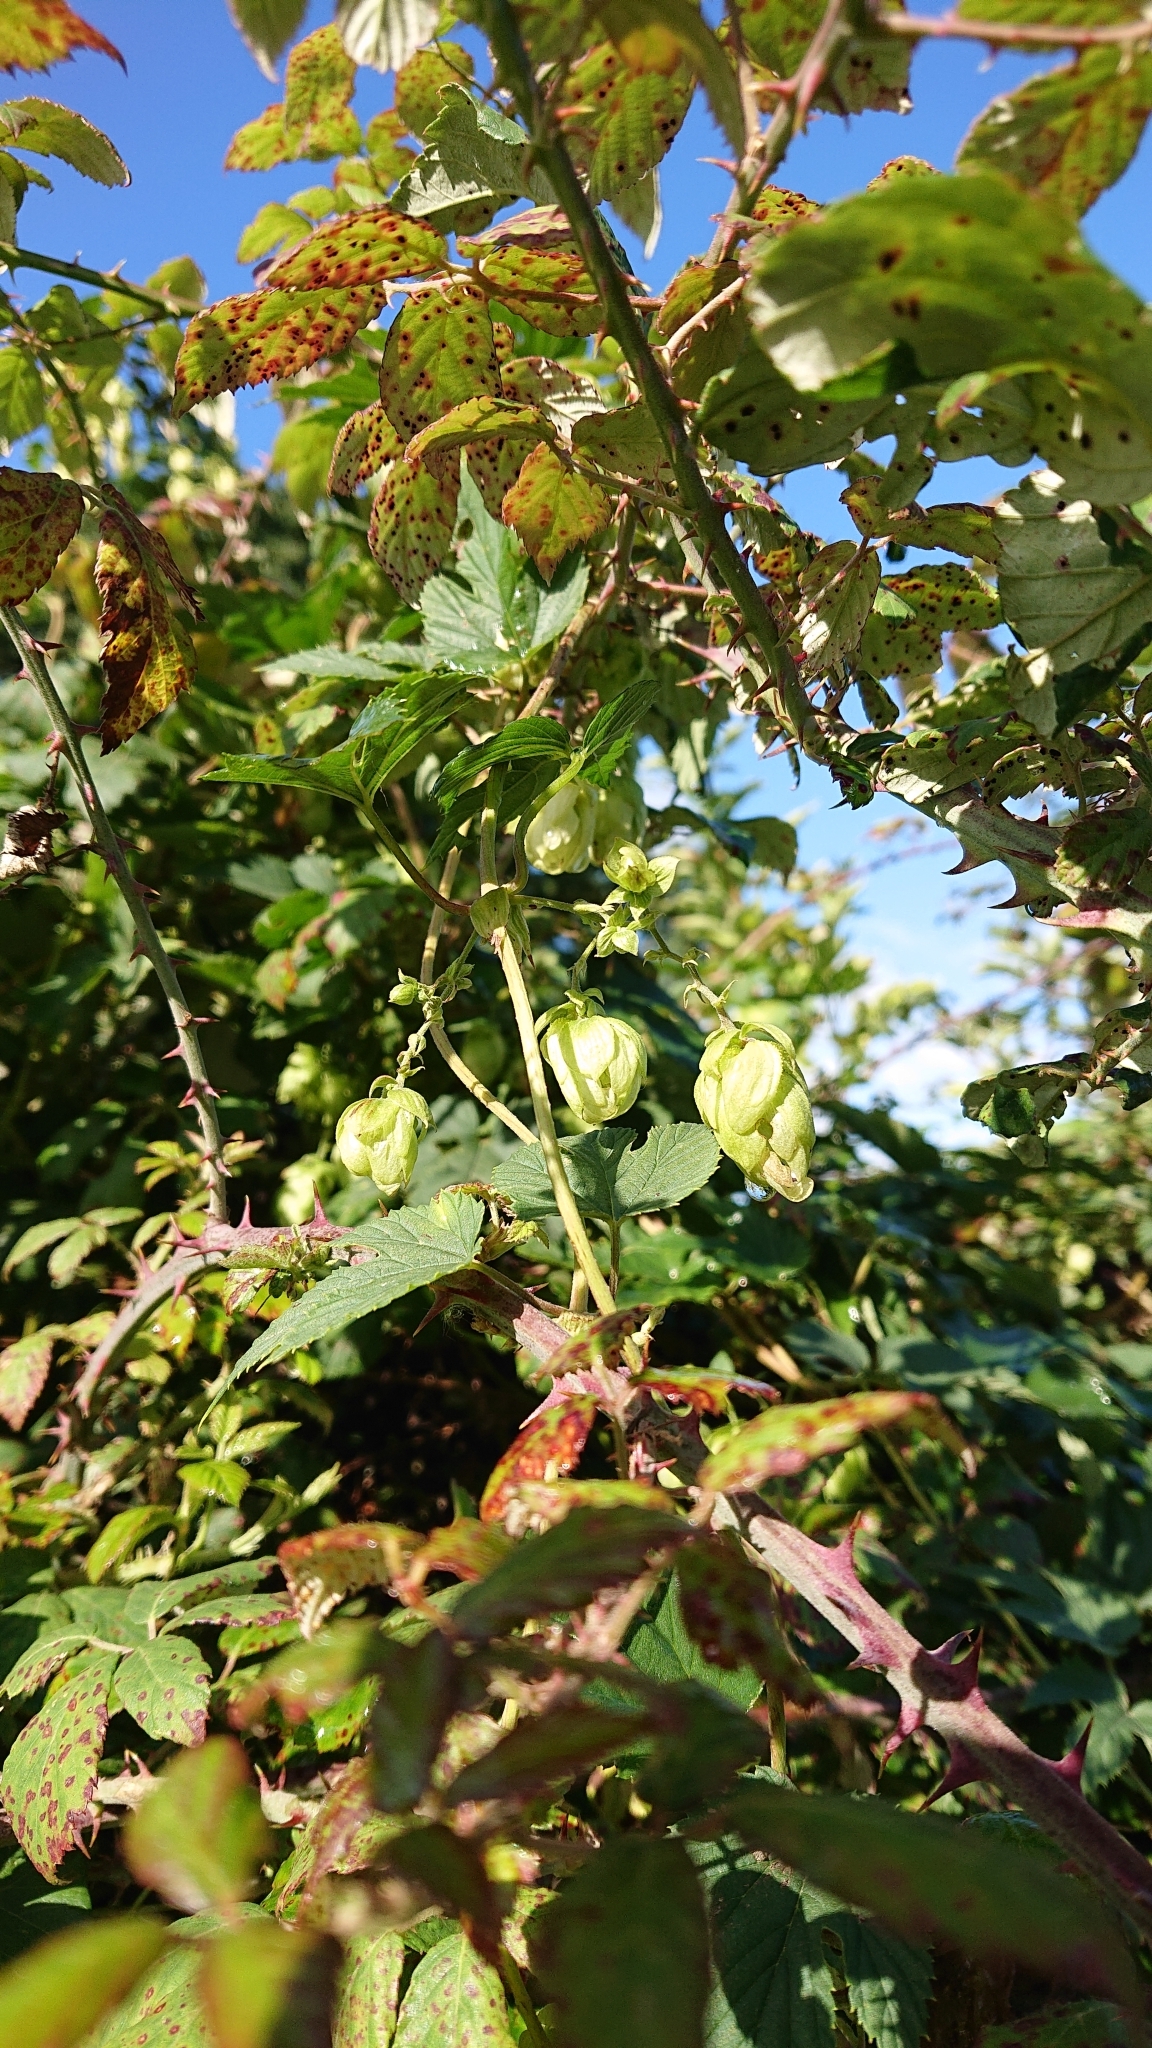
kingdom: Plantae
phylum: Tracheophyta
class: Magnoliopsida
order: Rosales
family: Cannabaceae
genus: Humulus
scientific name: Humulus lupulus
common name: Hop
